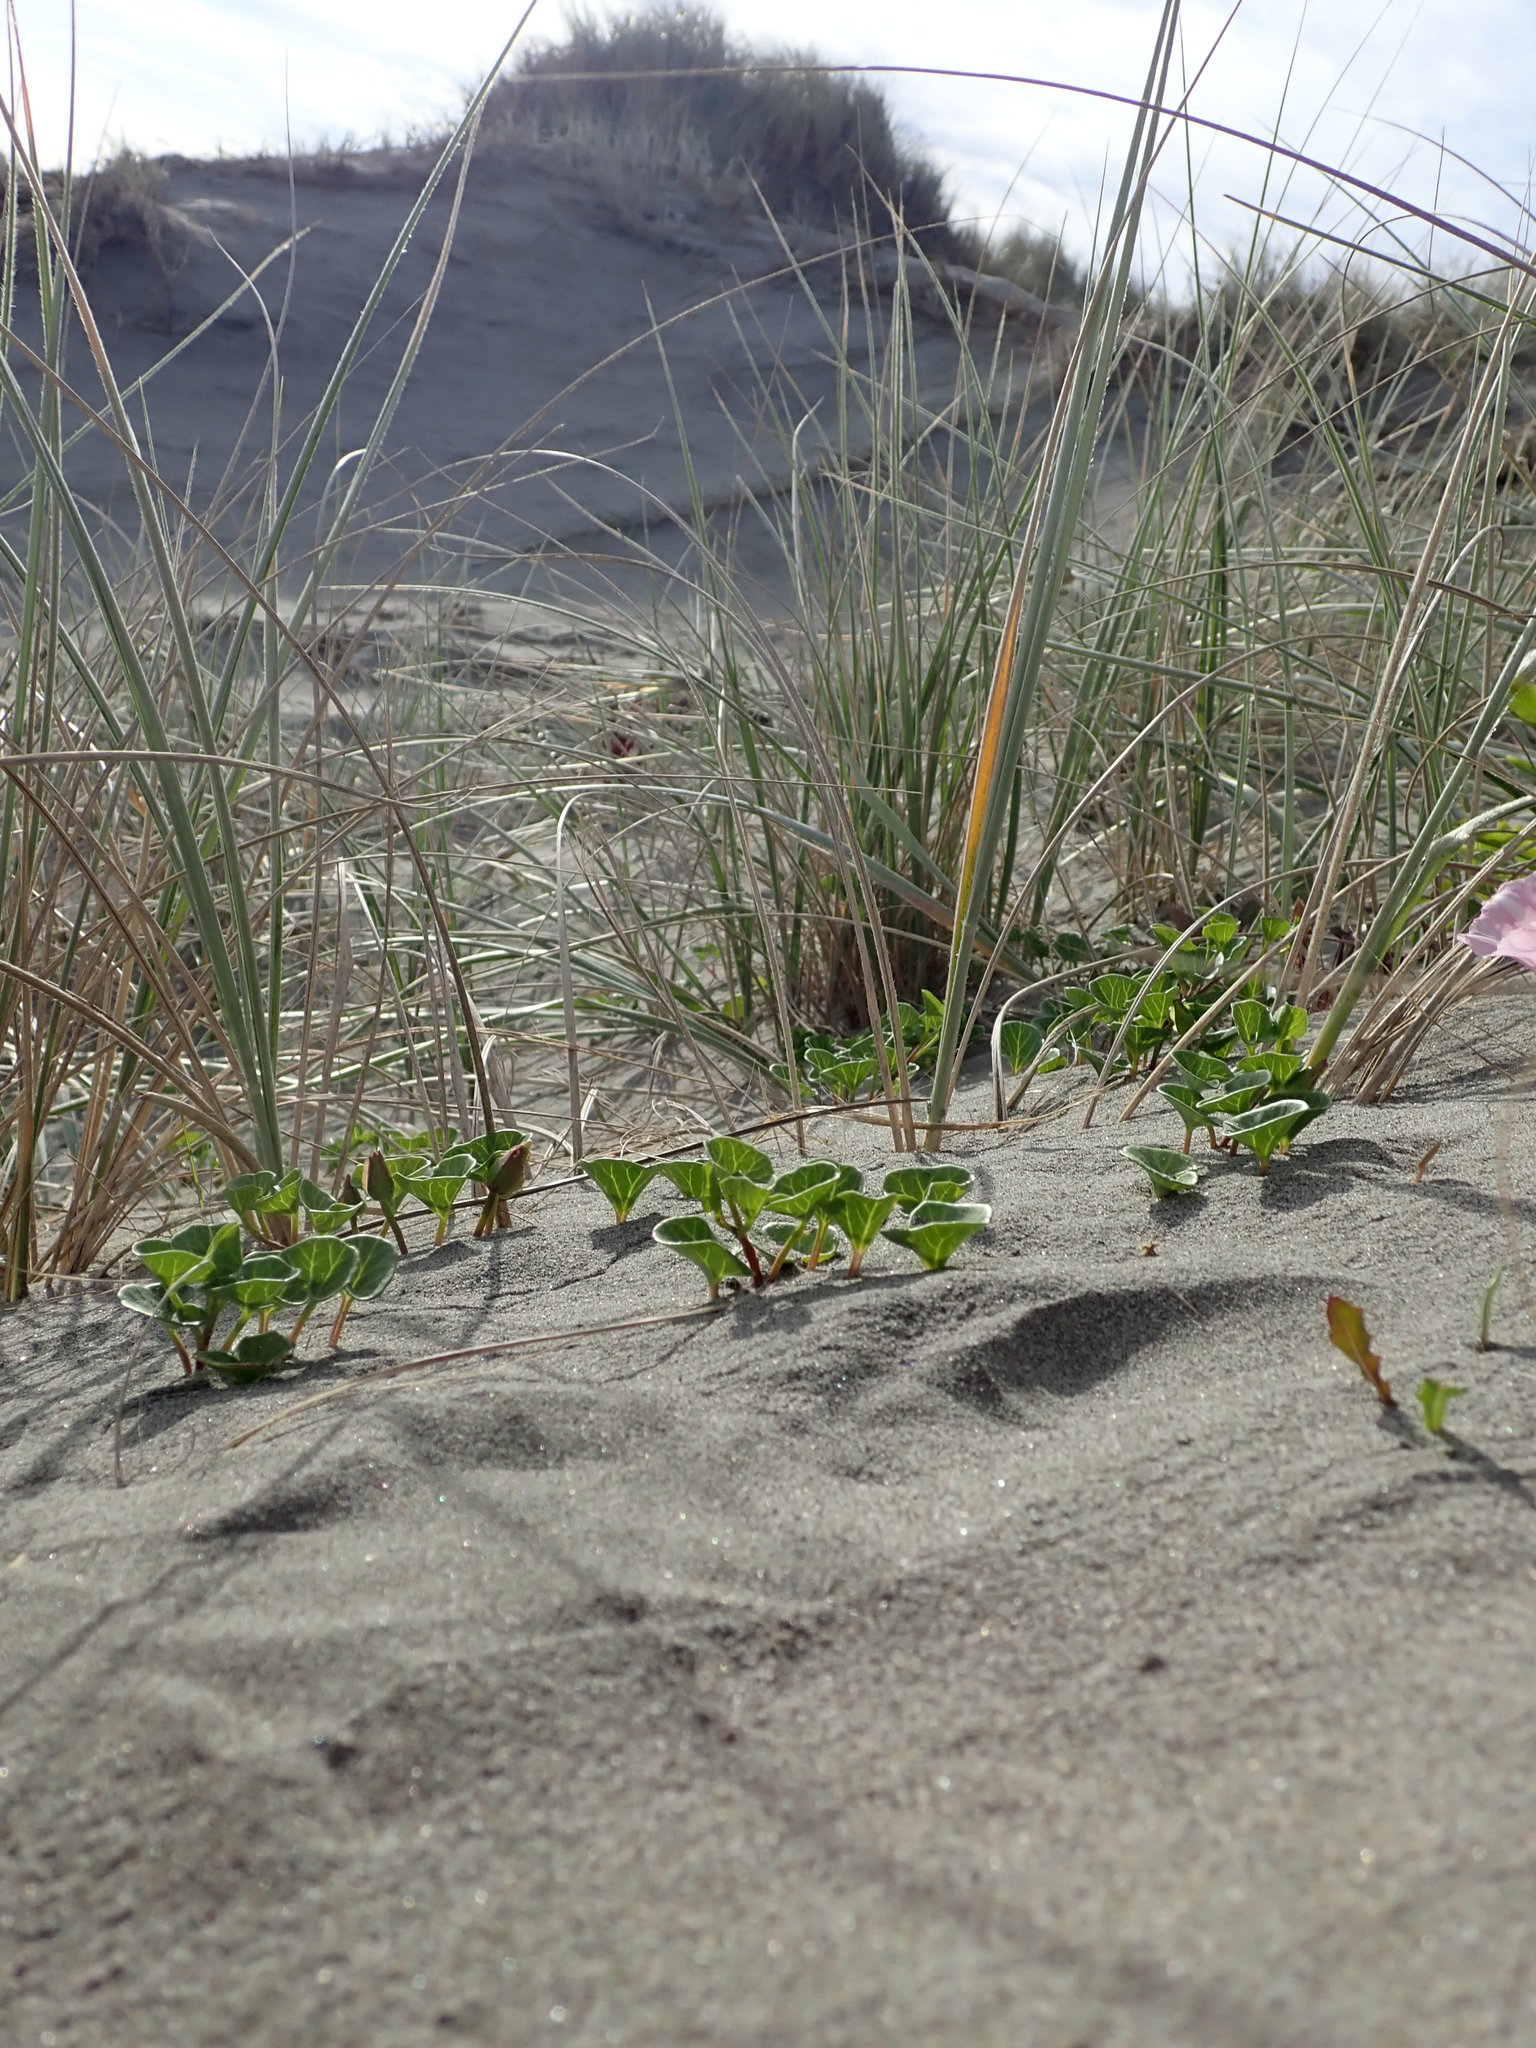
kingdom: Plantae
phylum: Tracheophyta
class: Magnoliopsida
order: Solanales
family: Convolvulaceae
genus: Calystegia
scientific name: Calystegia soldanella
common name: Sea bindweed
